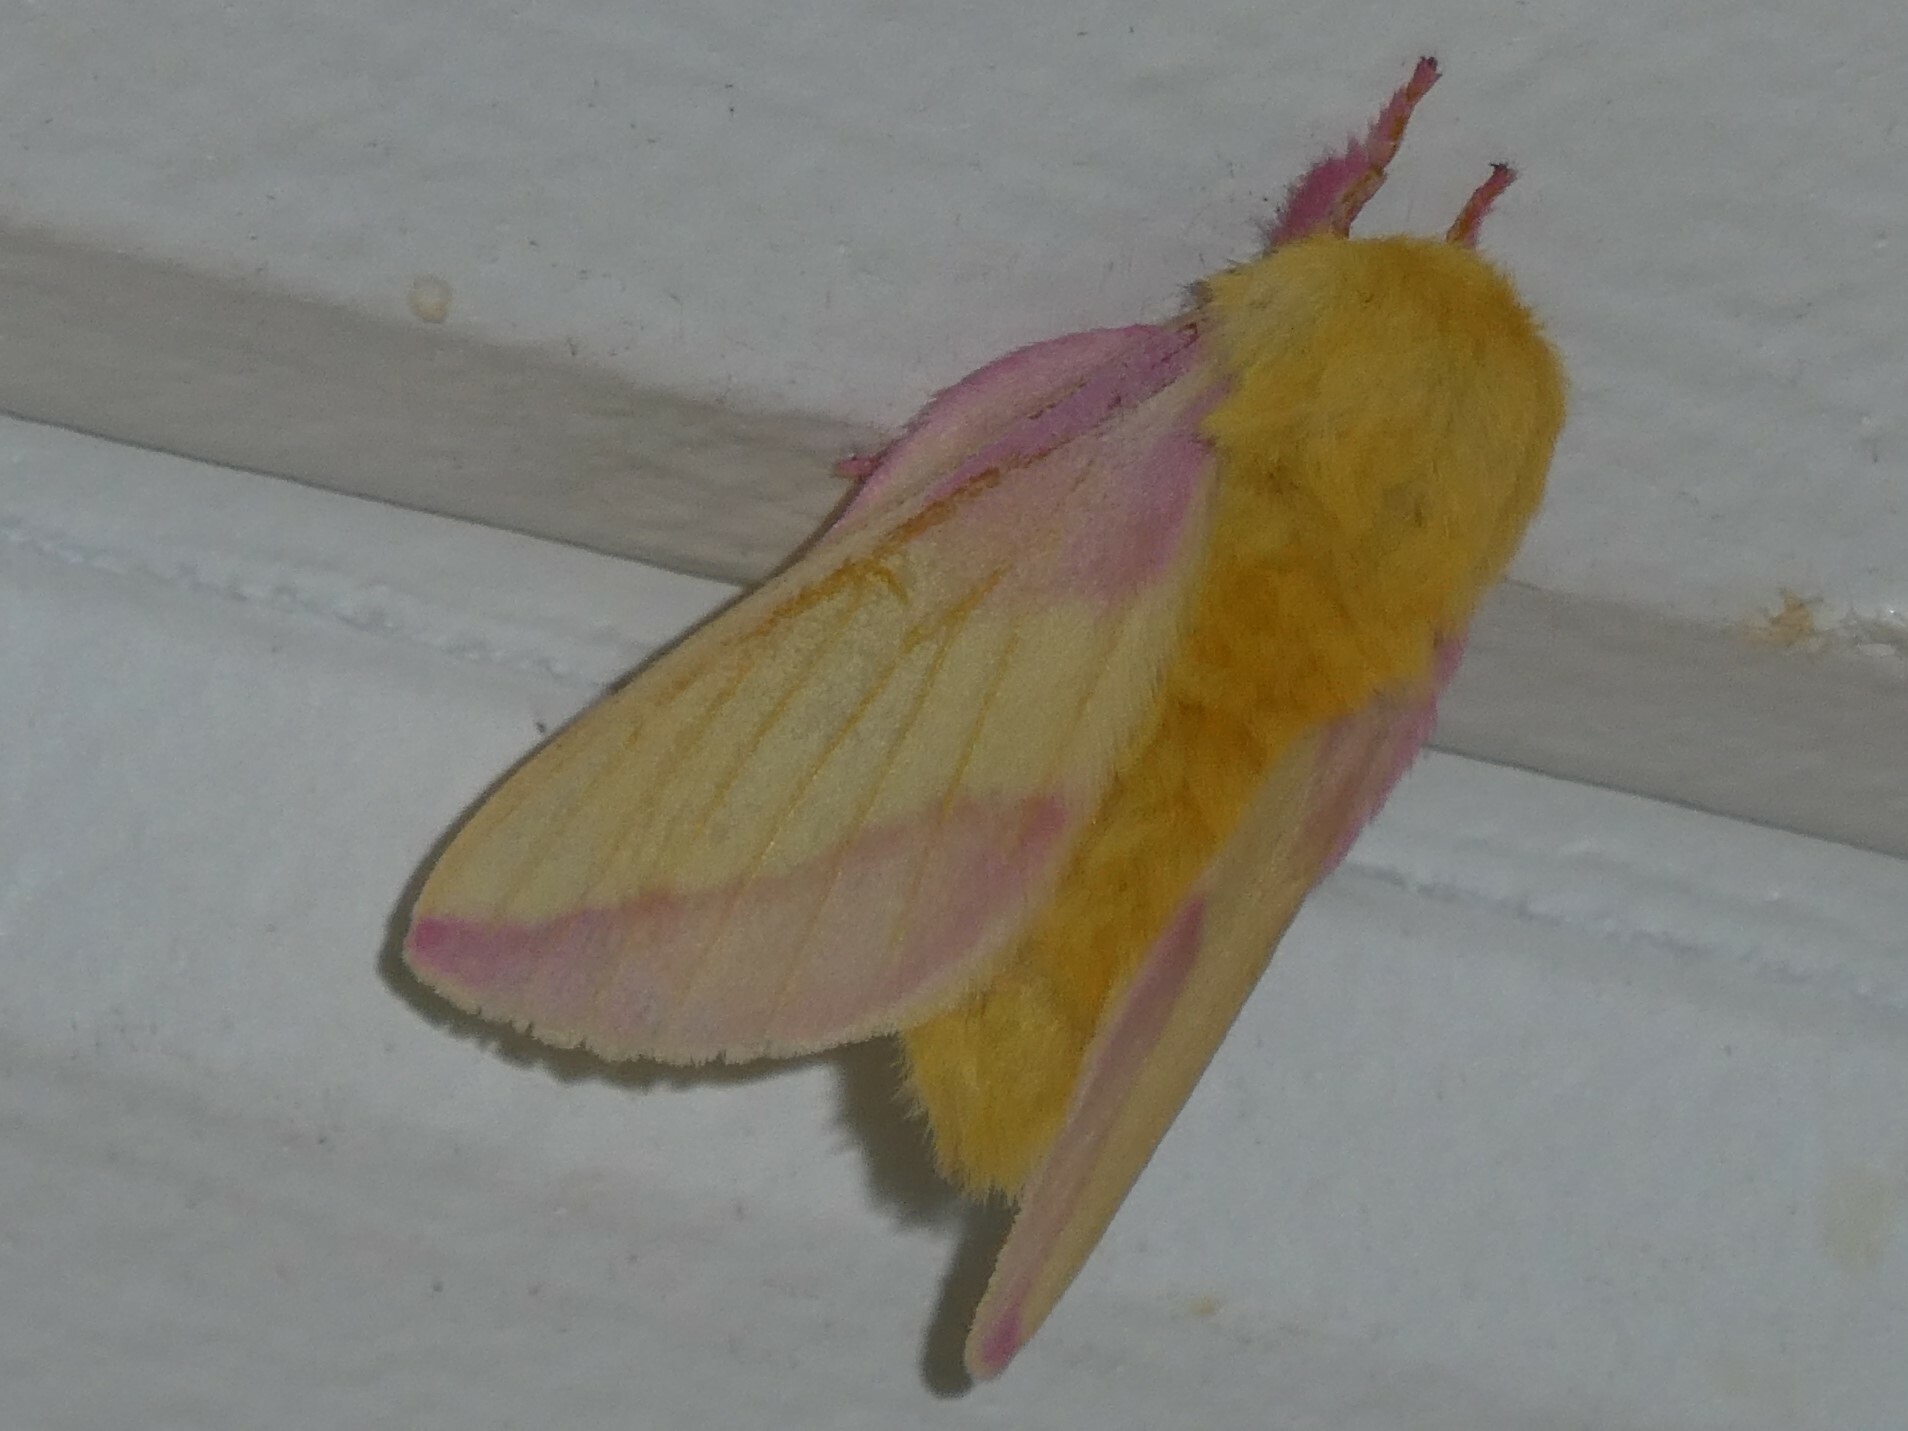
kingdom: Animalia
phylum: Arthropoda
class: Insecta
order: Lepidoptera
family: Saturniidae
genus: Dryocampa
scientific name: Dryocampa rubicunda
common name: Rosy maple moth
